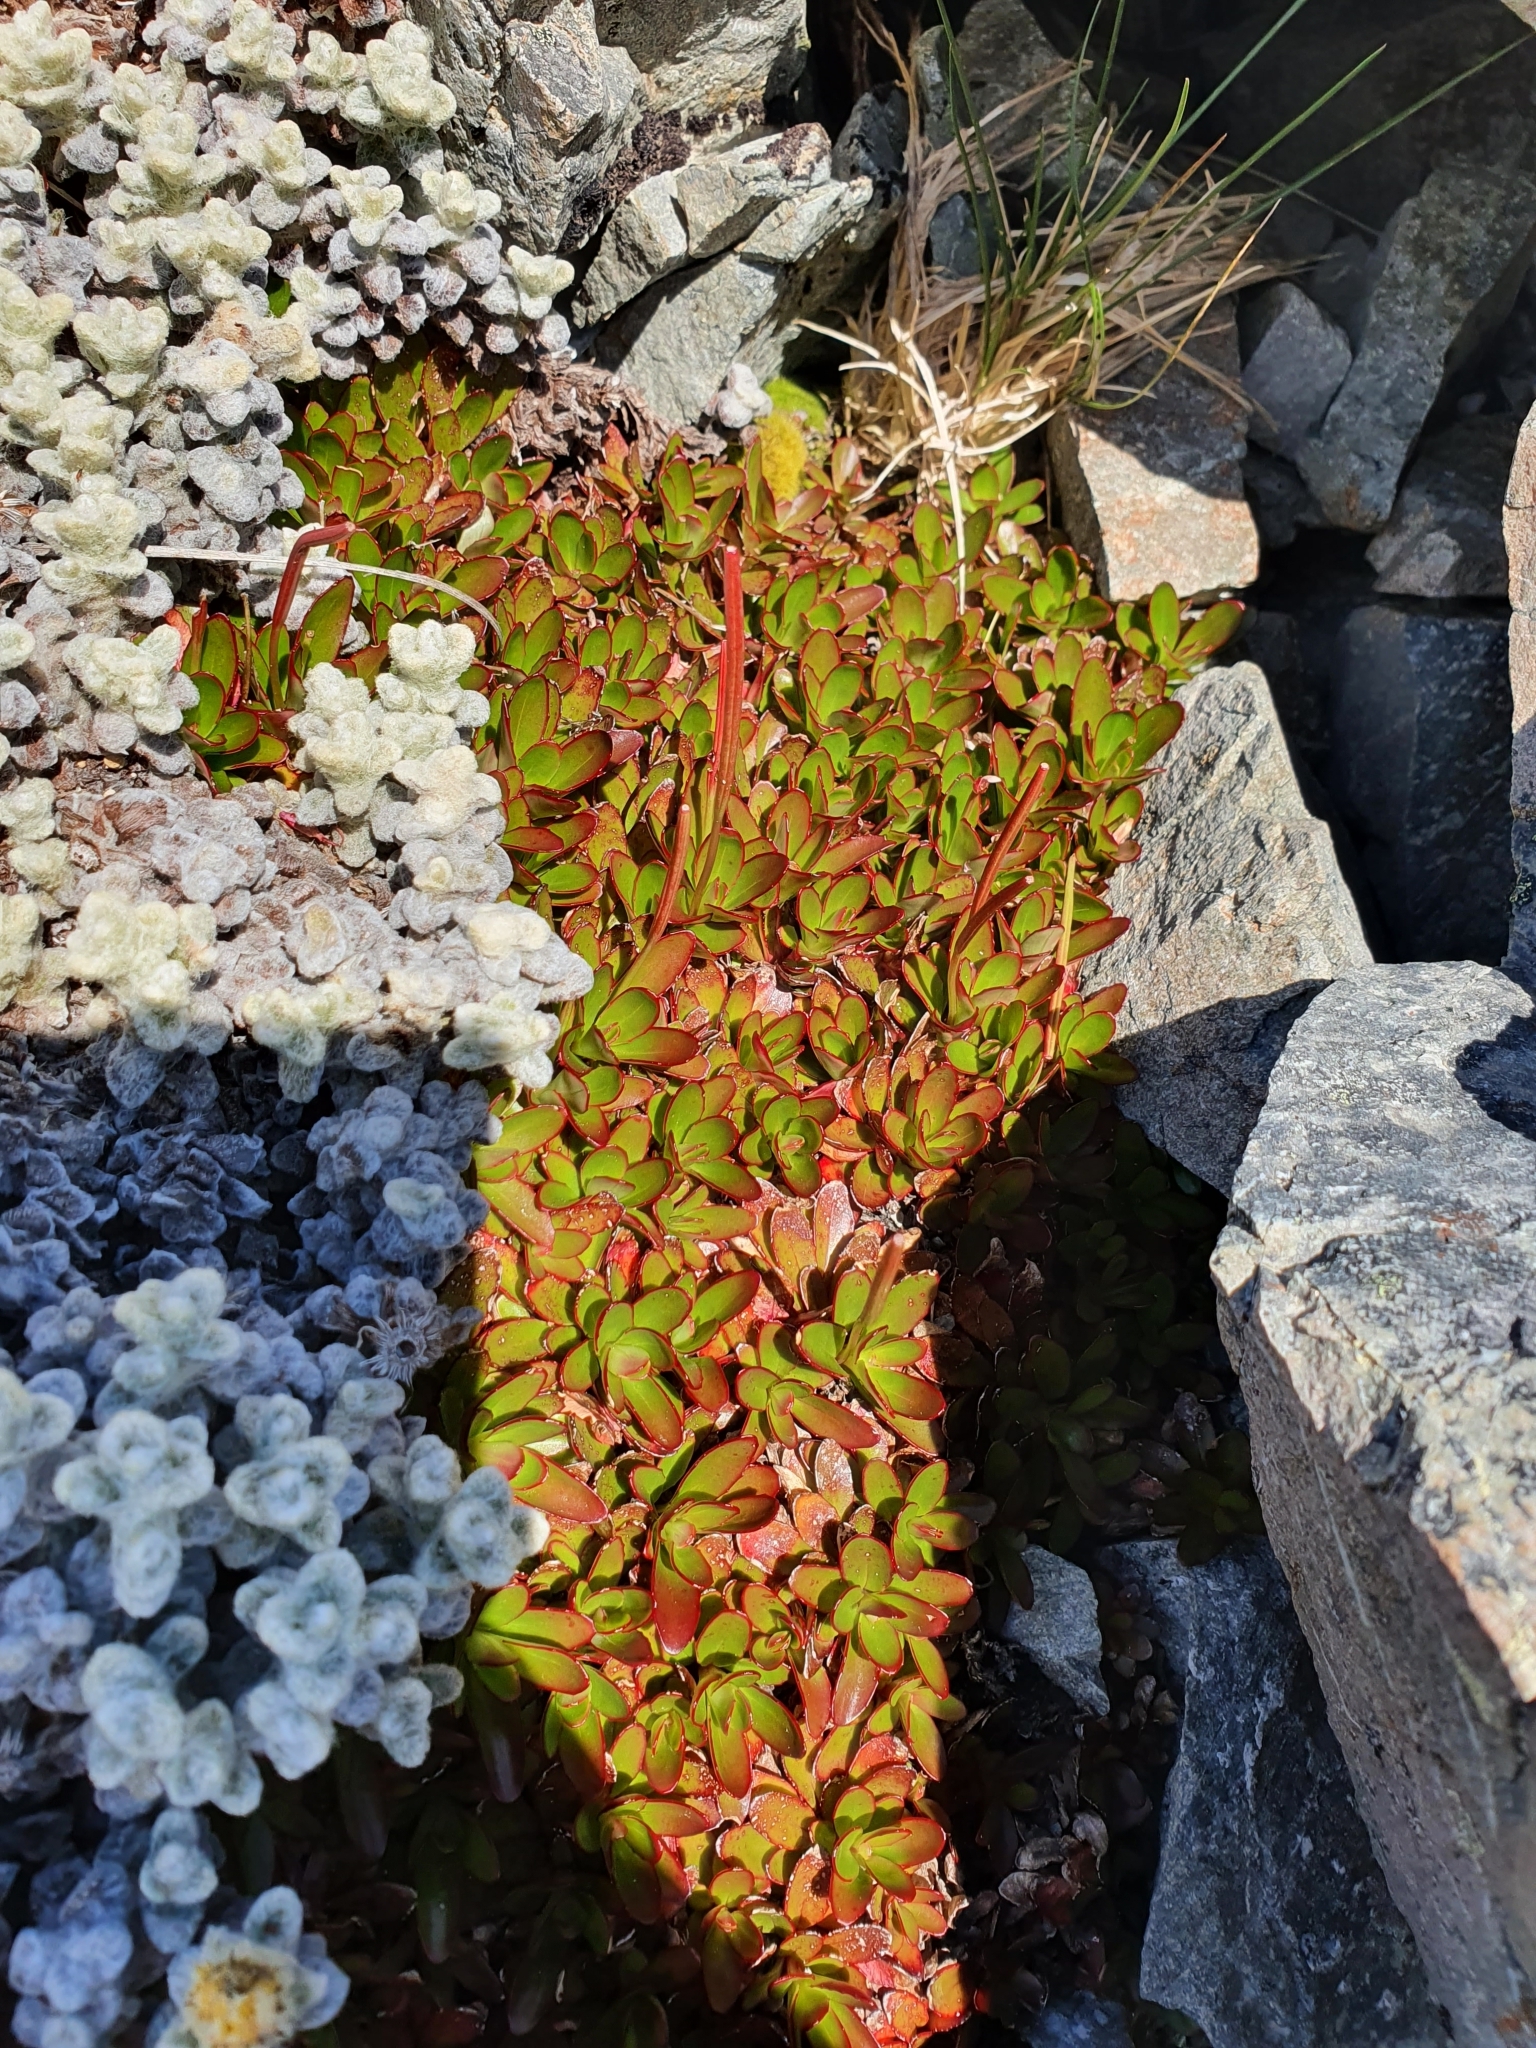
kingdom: Plantae
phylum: Tracheophyta
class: Magnoliopsida
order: Myrtales
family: Onagraceae
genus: Epilobium
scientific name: Epilobium crassum
